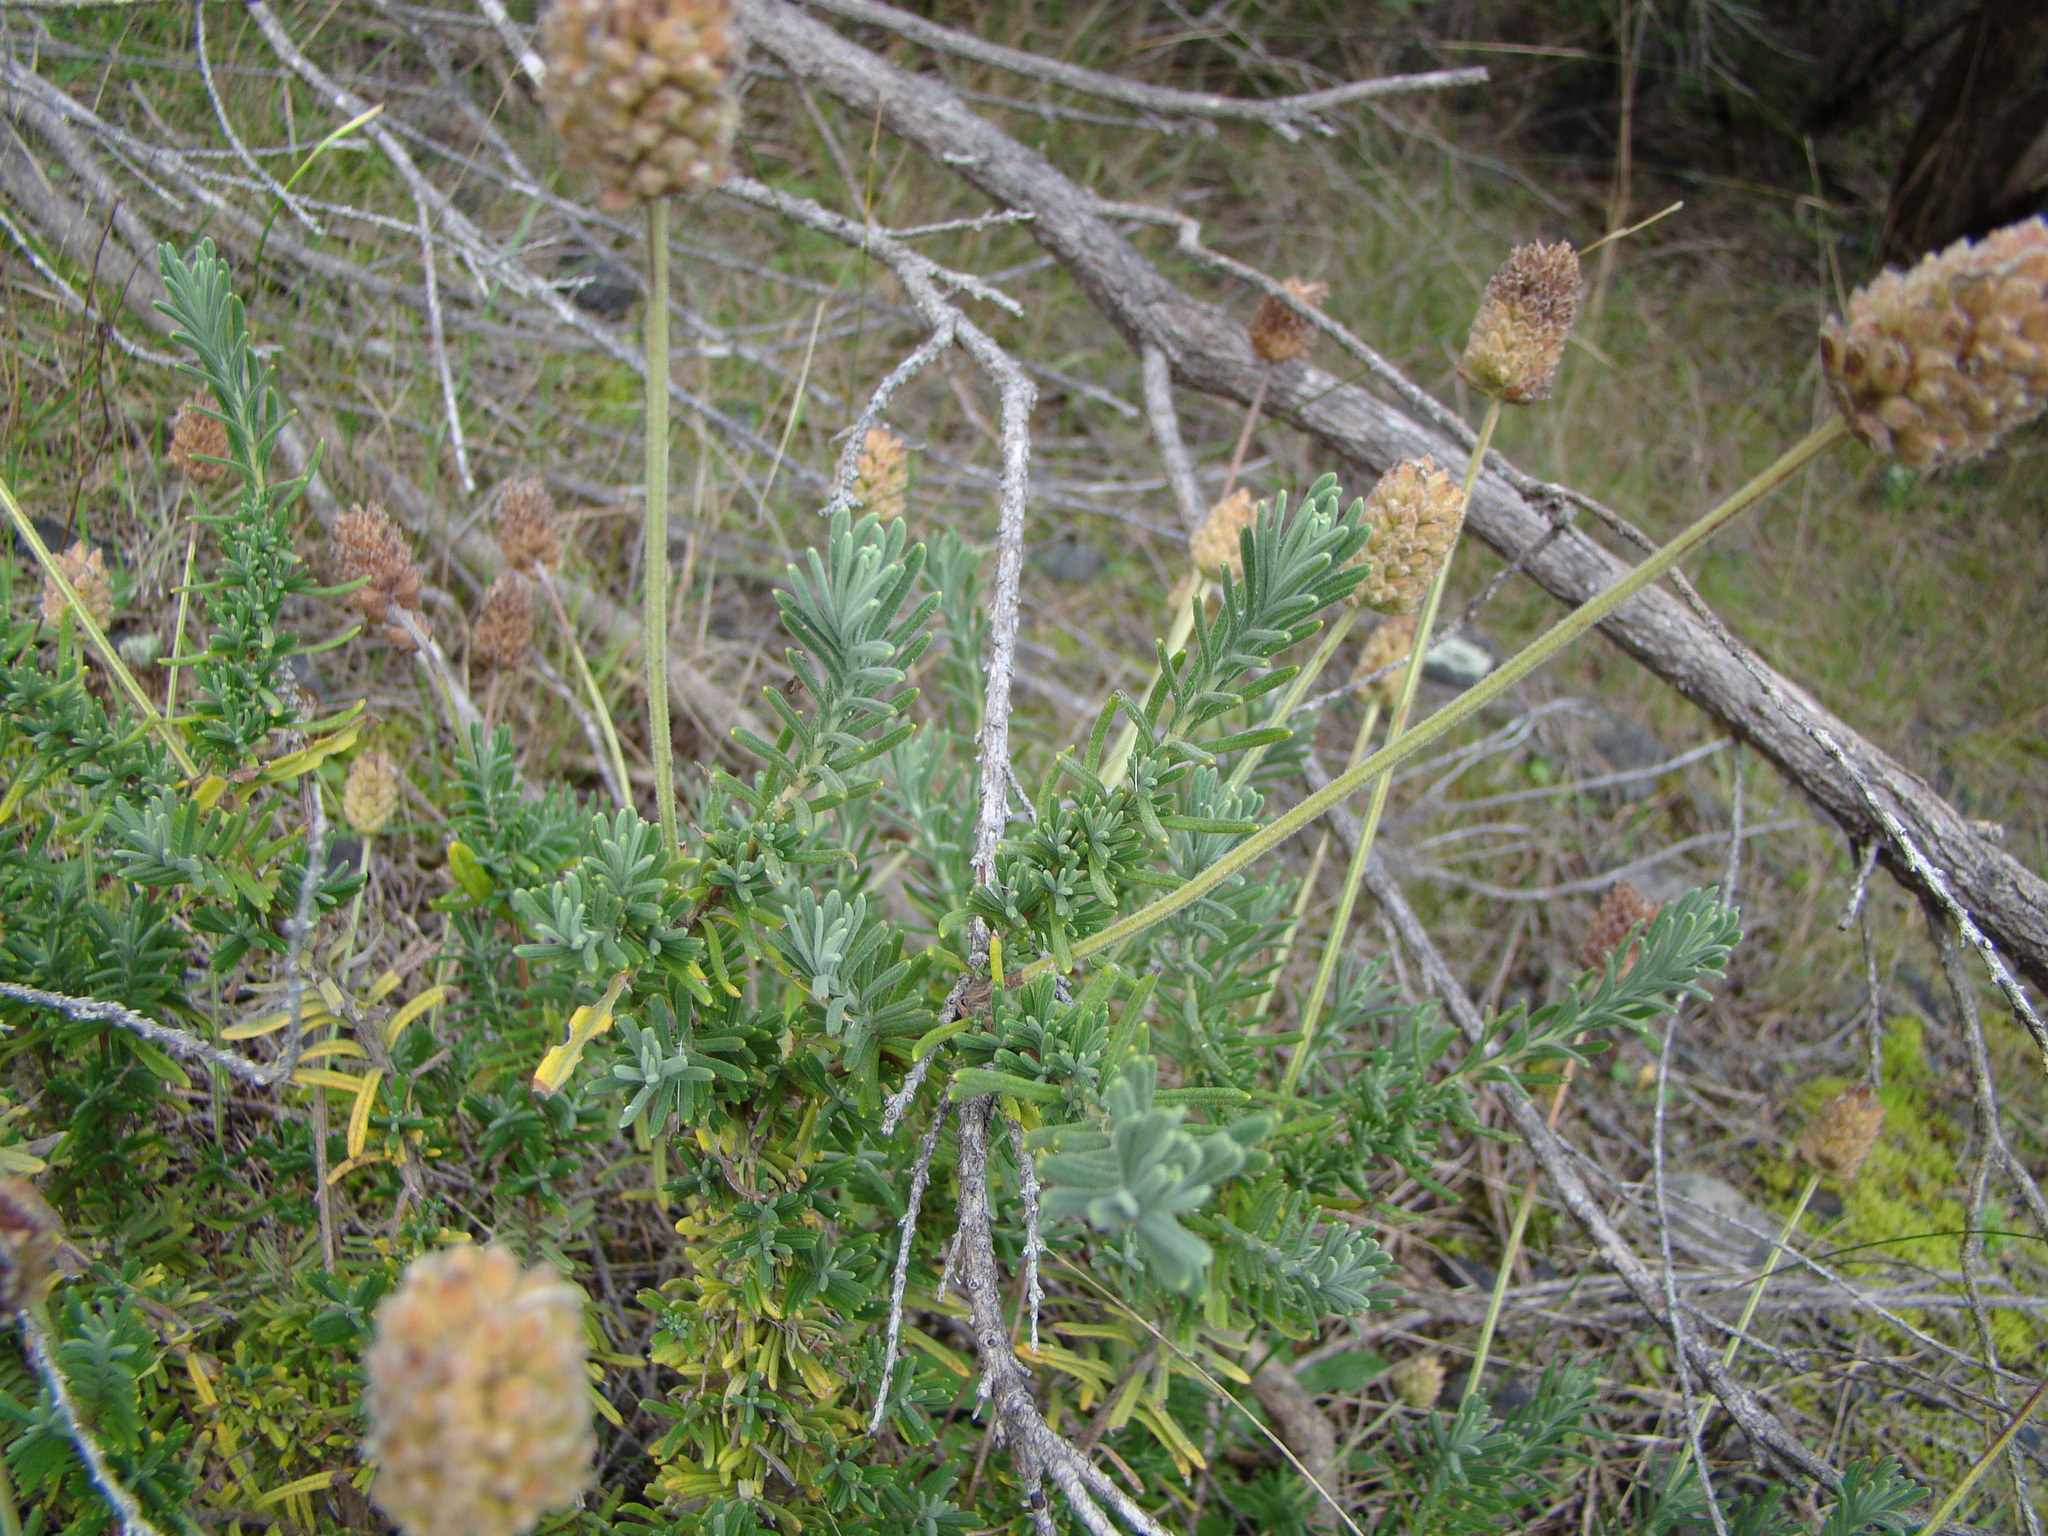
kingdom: Plantae
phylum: Tracheophyta
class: Magnoliopsida
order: Lamiales
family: Lamiaceae
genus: Lavandula
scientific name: Lavandula pedunculata
